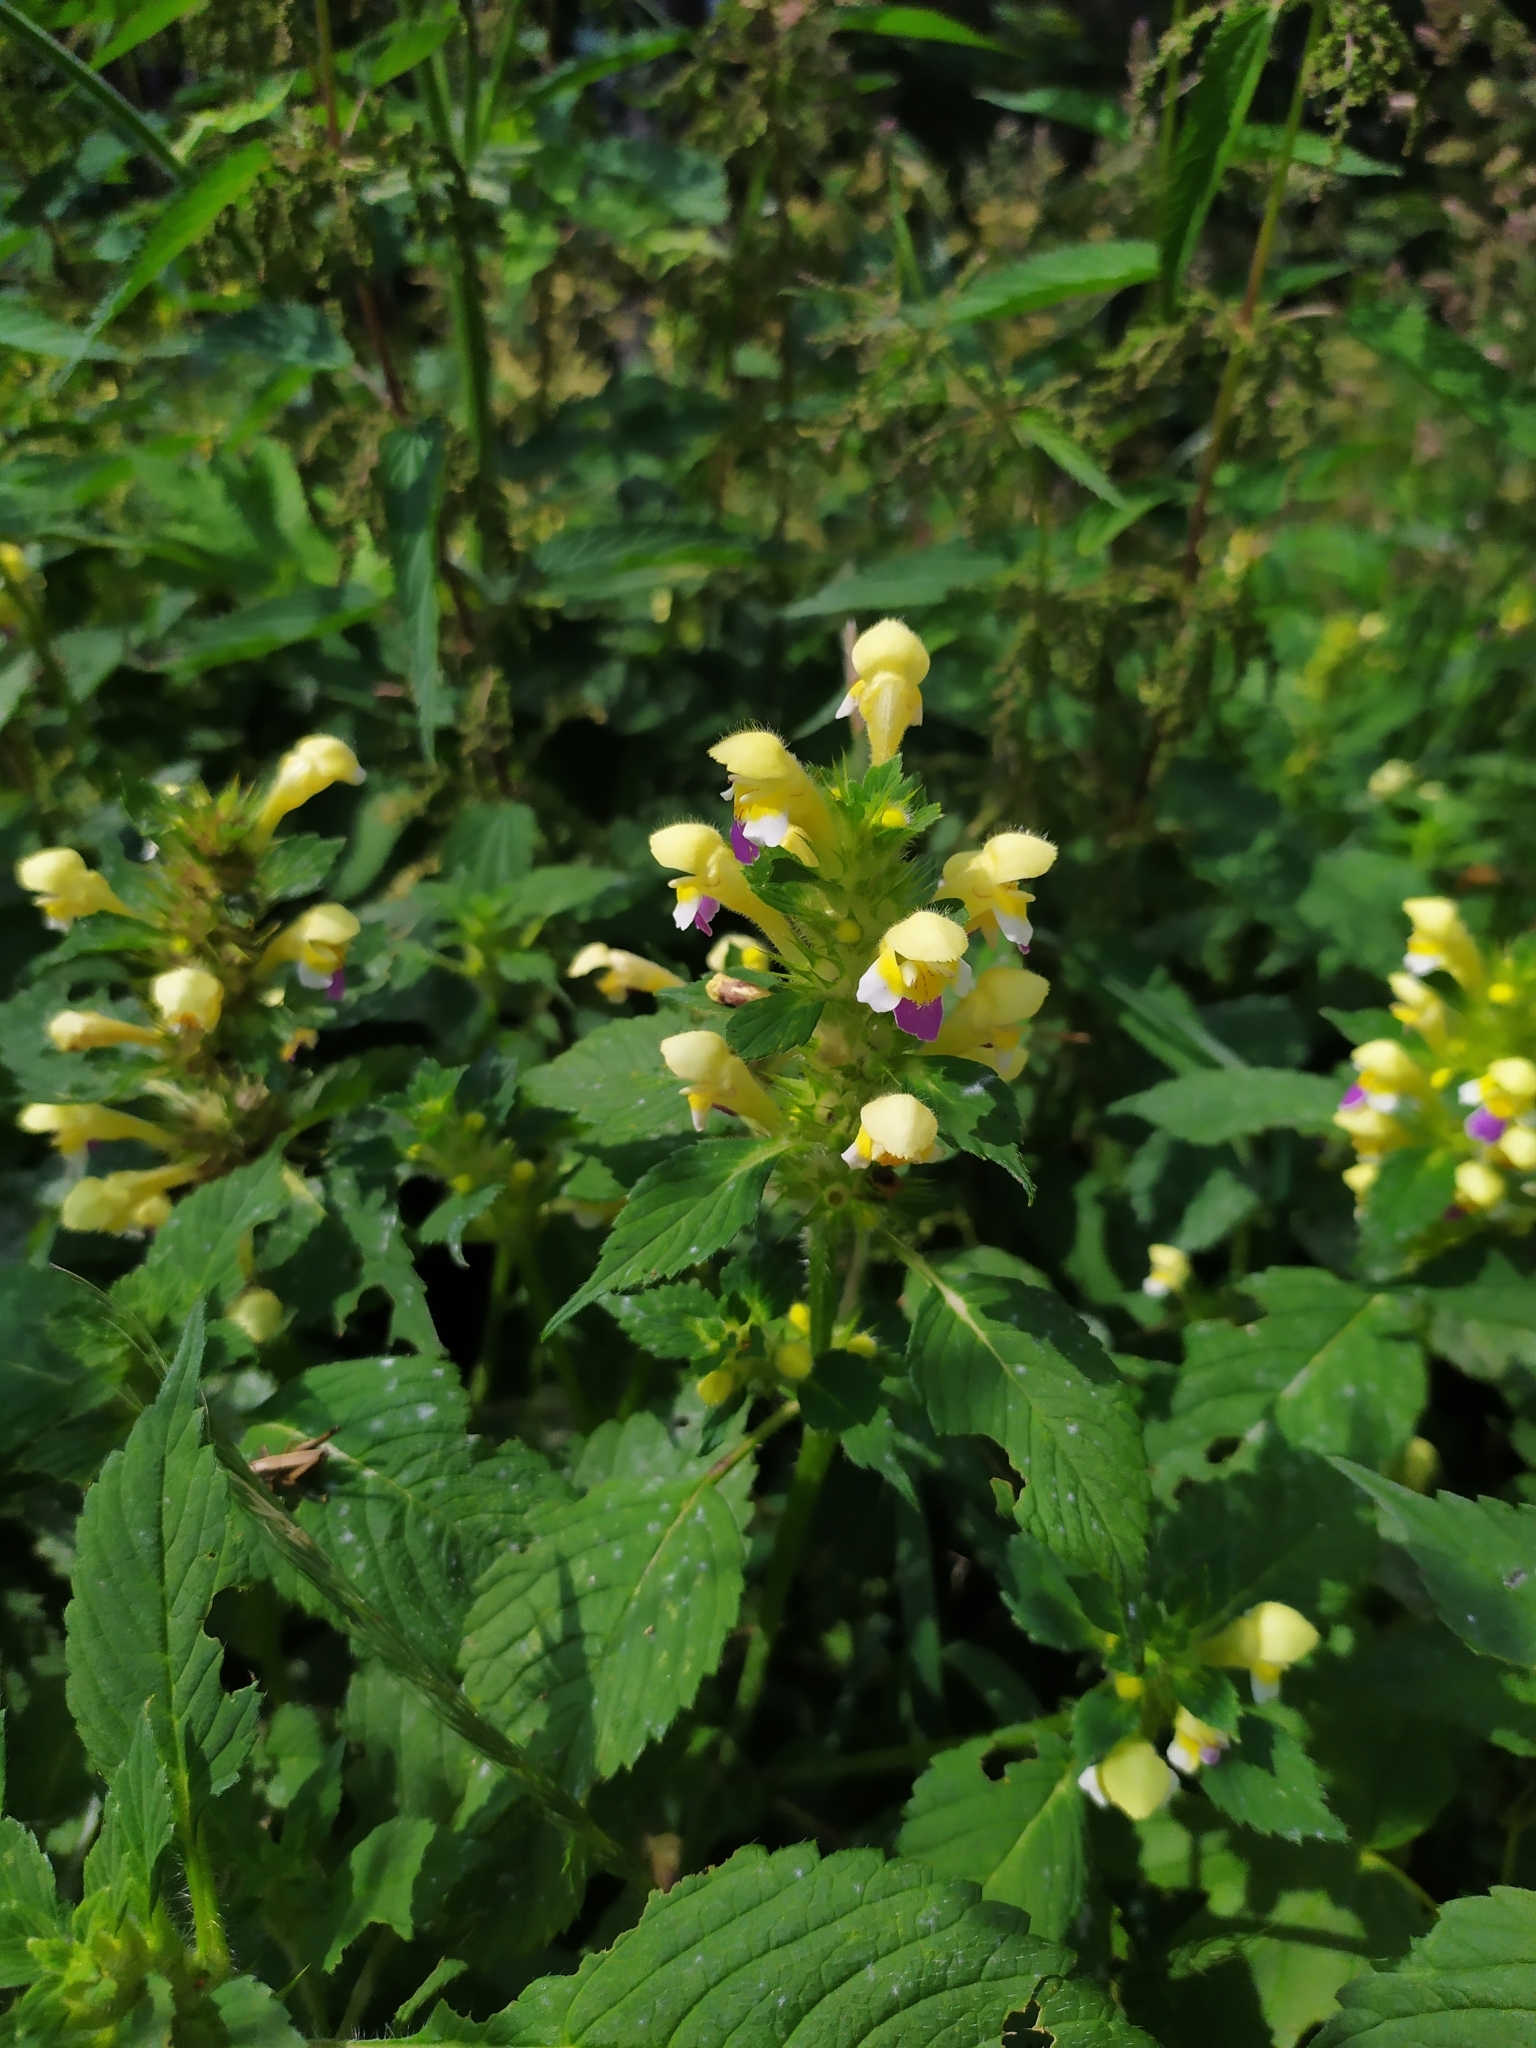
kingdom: Plantae
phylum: Tracheophyta
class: Magnoliopsida
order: Lamiales
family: Lamiaceae
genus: Galeopsis
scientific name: Galeopsis speciosa
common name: Large-flowered hemp-nettle
